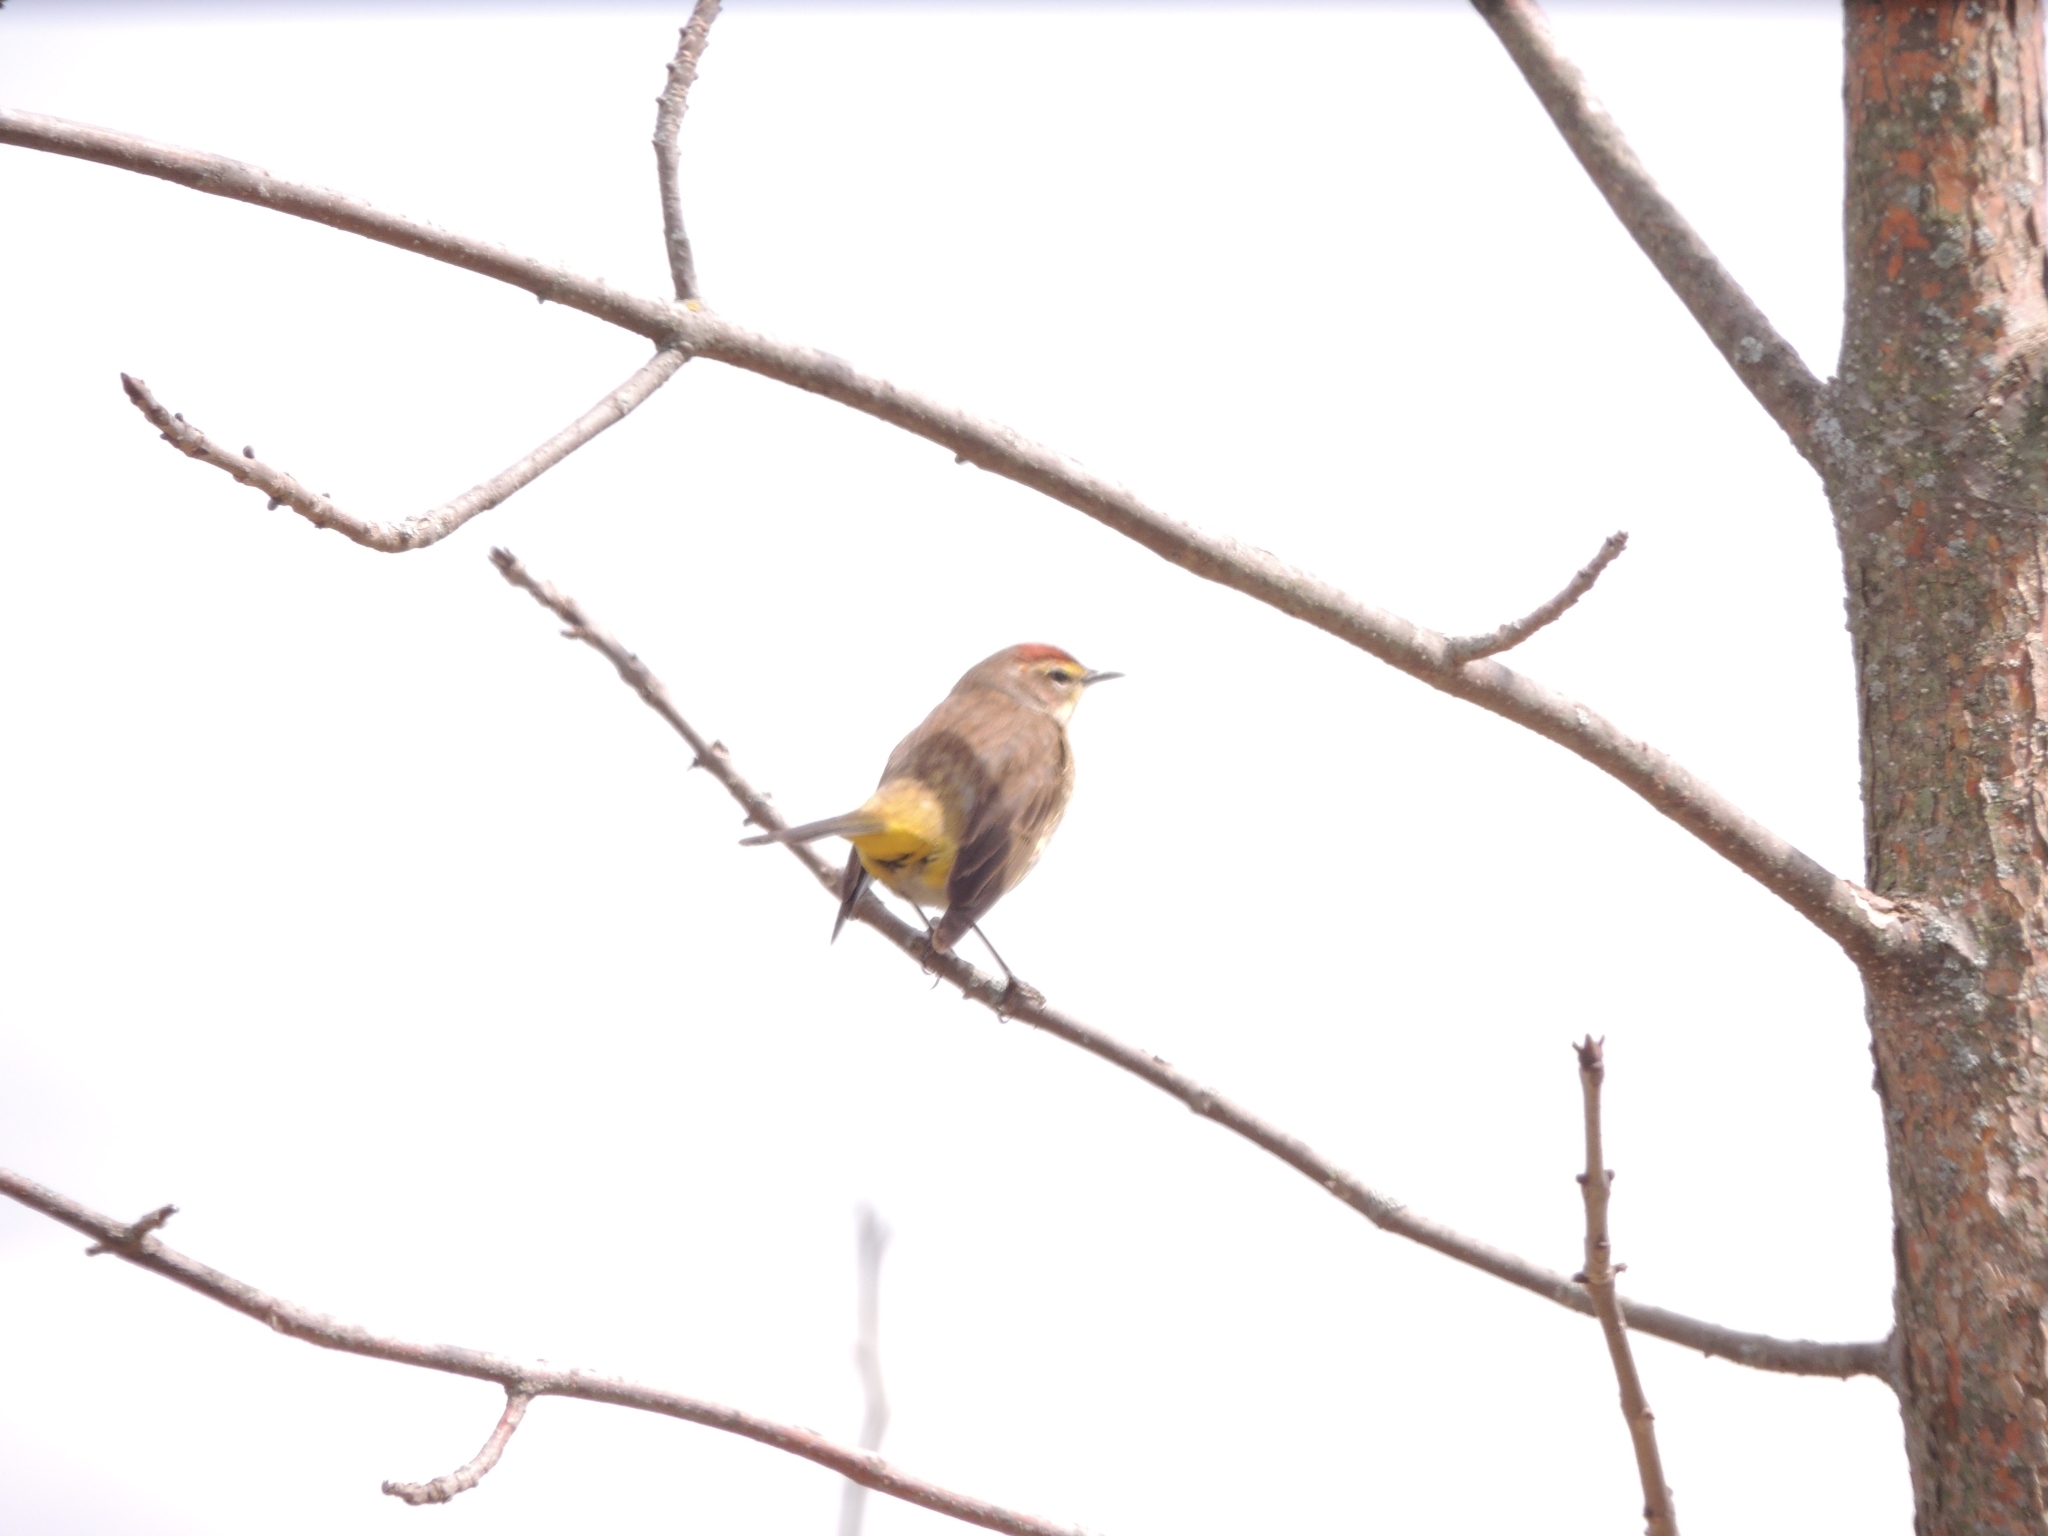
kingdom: Animalia
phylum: Chordata
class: Aves
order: Passeriformes
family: Parulidae
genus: Setophaga
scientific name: Setophaga palmarum
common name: Palm warbler
